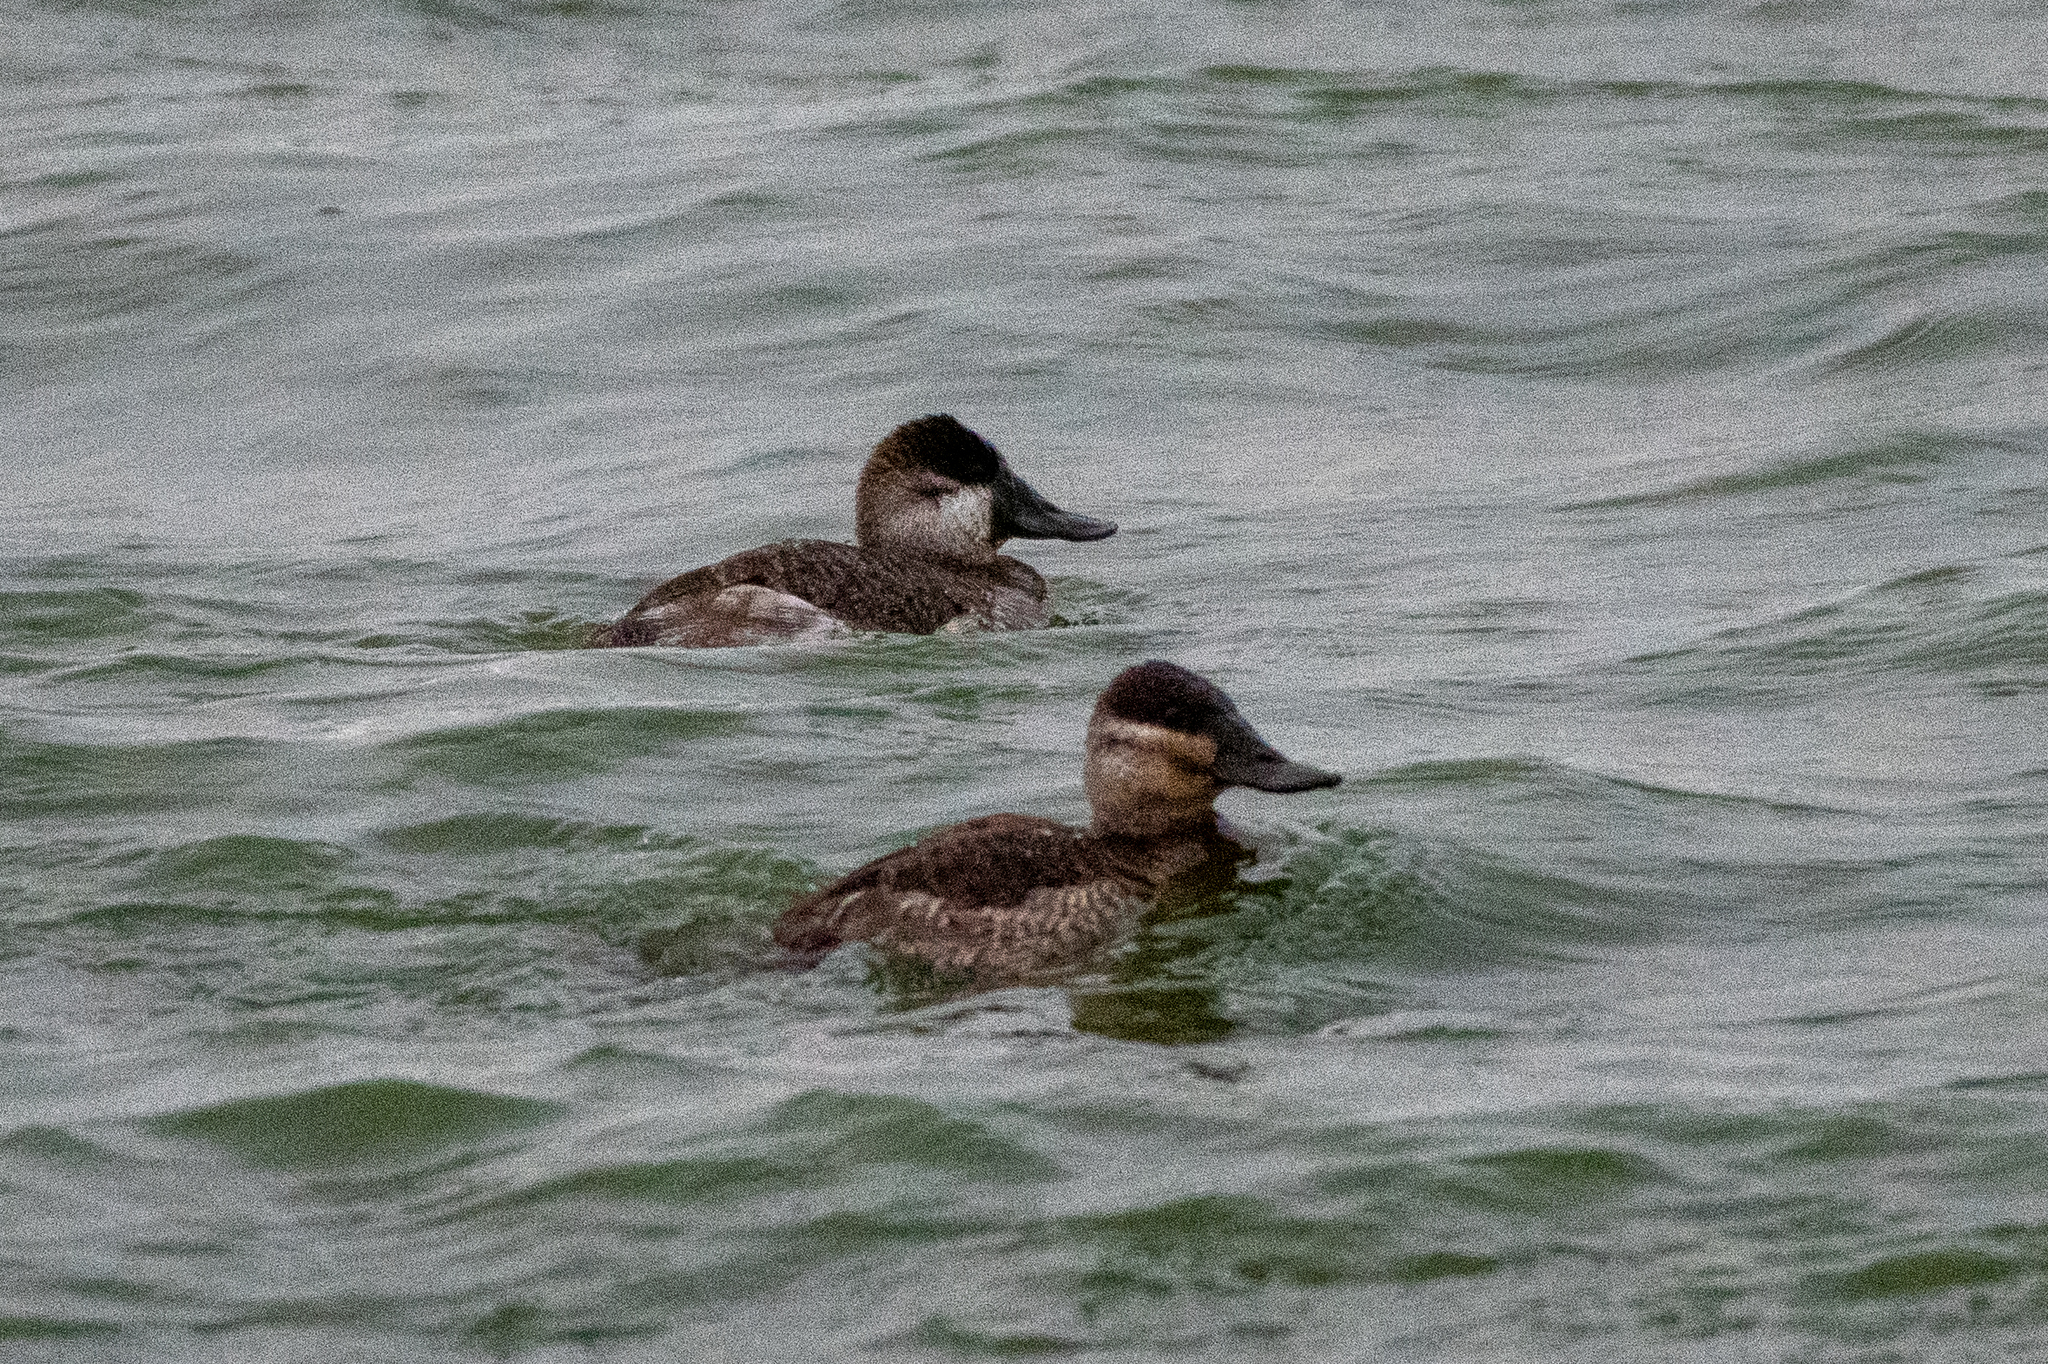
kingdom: Animalia
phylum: Chordata
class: Aves
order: Anseriformes
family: Anatidae
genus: Oxyura
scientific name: Oxyura jamaicensis
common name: Ruddy duck
